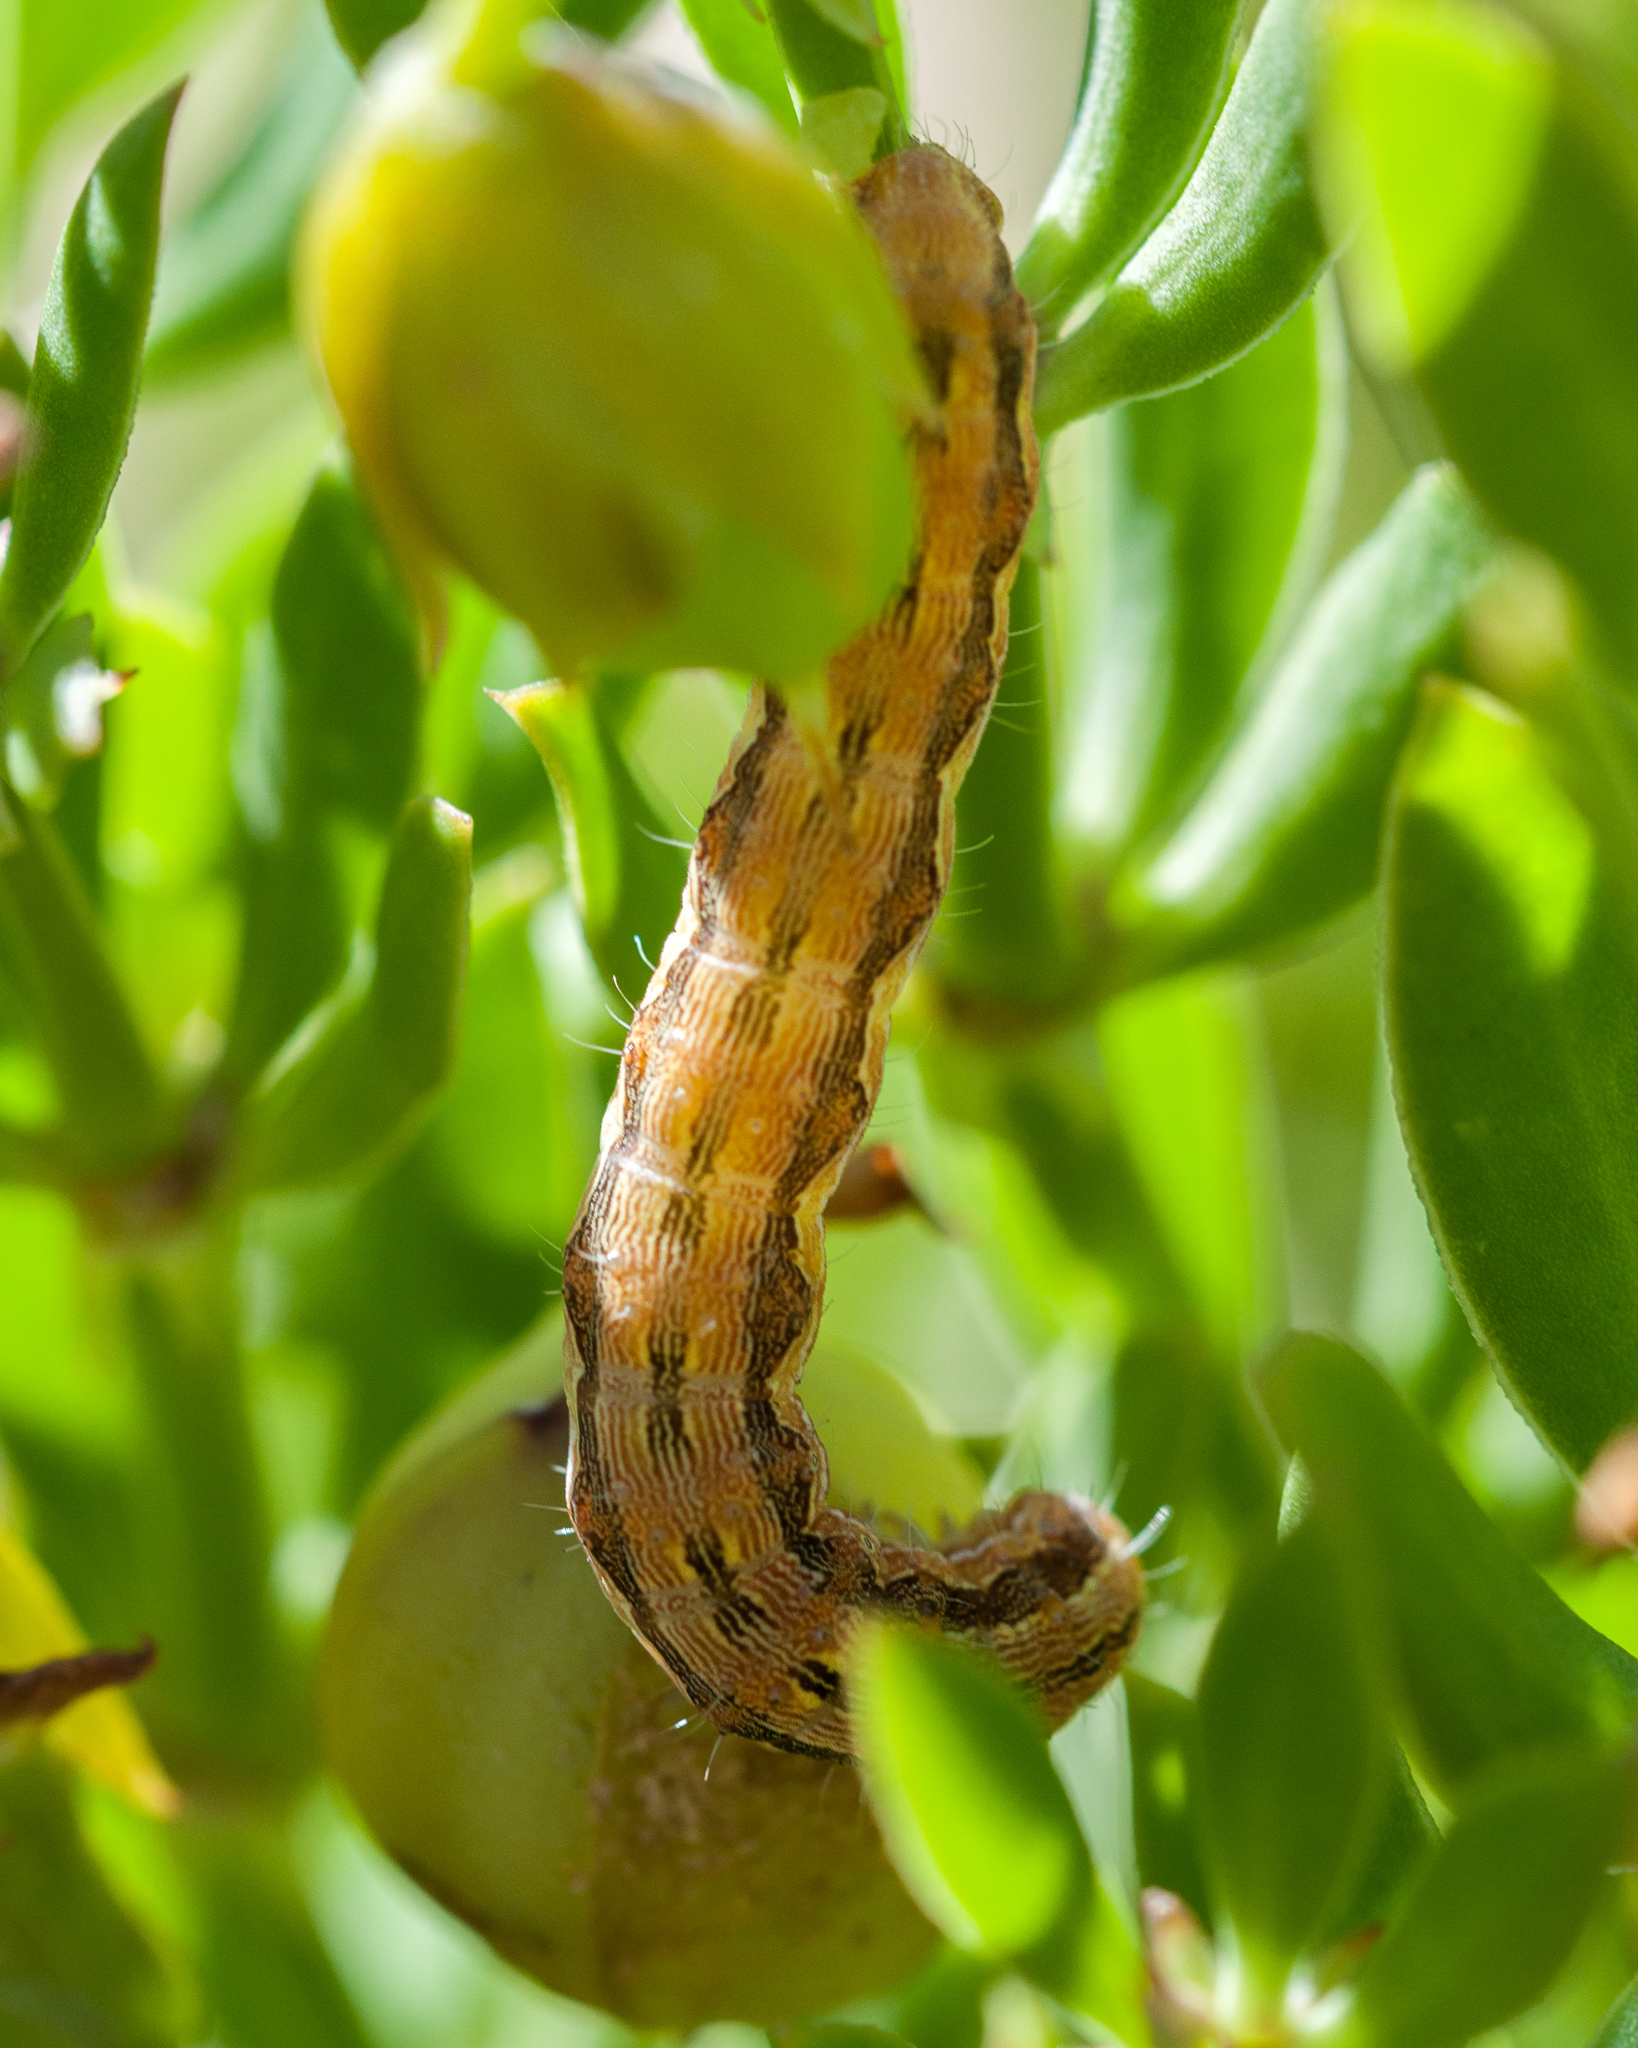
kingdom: Animalia
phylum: Arthropoda
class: Insecta
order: Lepidoptera
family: Noctuidae
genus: Helicoverpa
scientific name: Helicoverpa armigera
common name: Cotton bollworm
